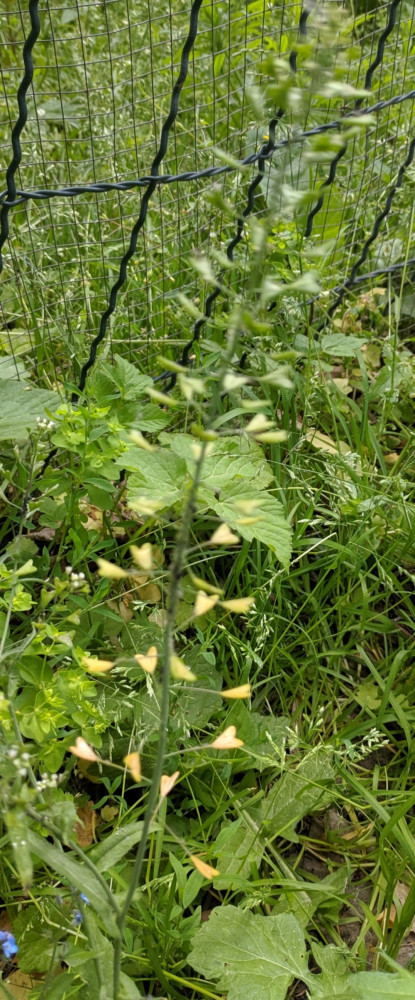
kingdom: Plantae
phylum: Tracheophyta
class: Magnoliopsida
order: Brassicales
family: Brassicaceae
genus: Capsella
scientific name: Capsella bursa-pastoris
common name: Shepherd's purse
